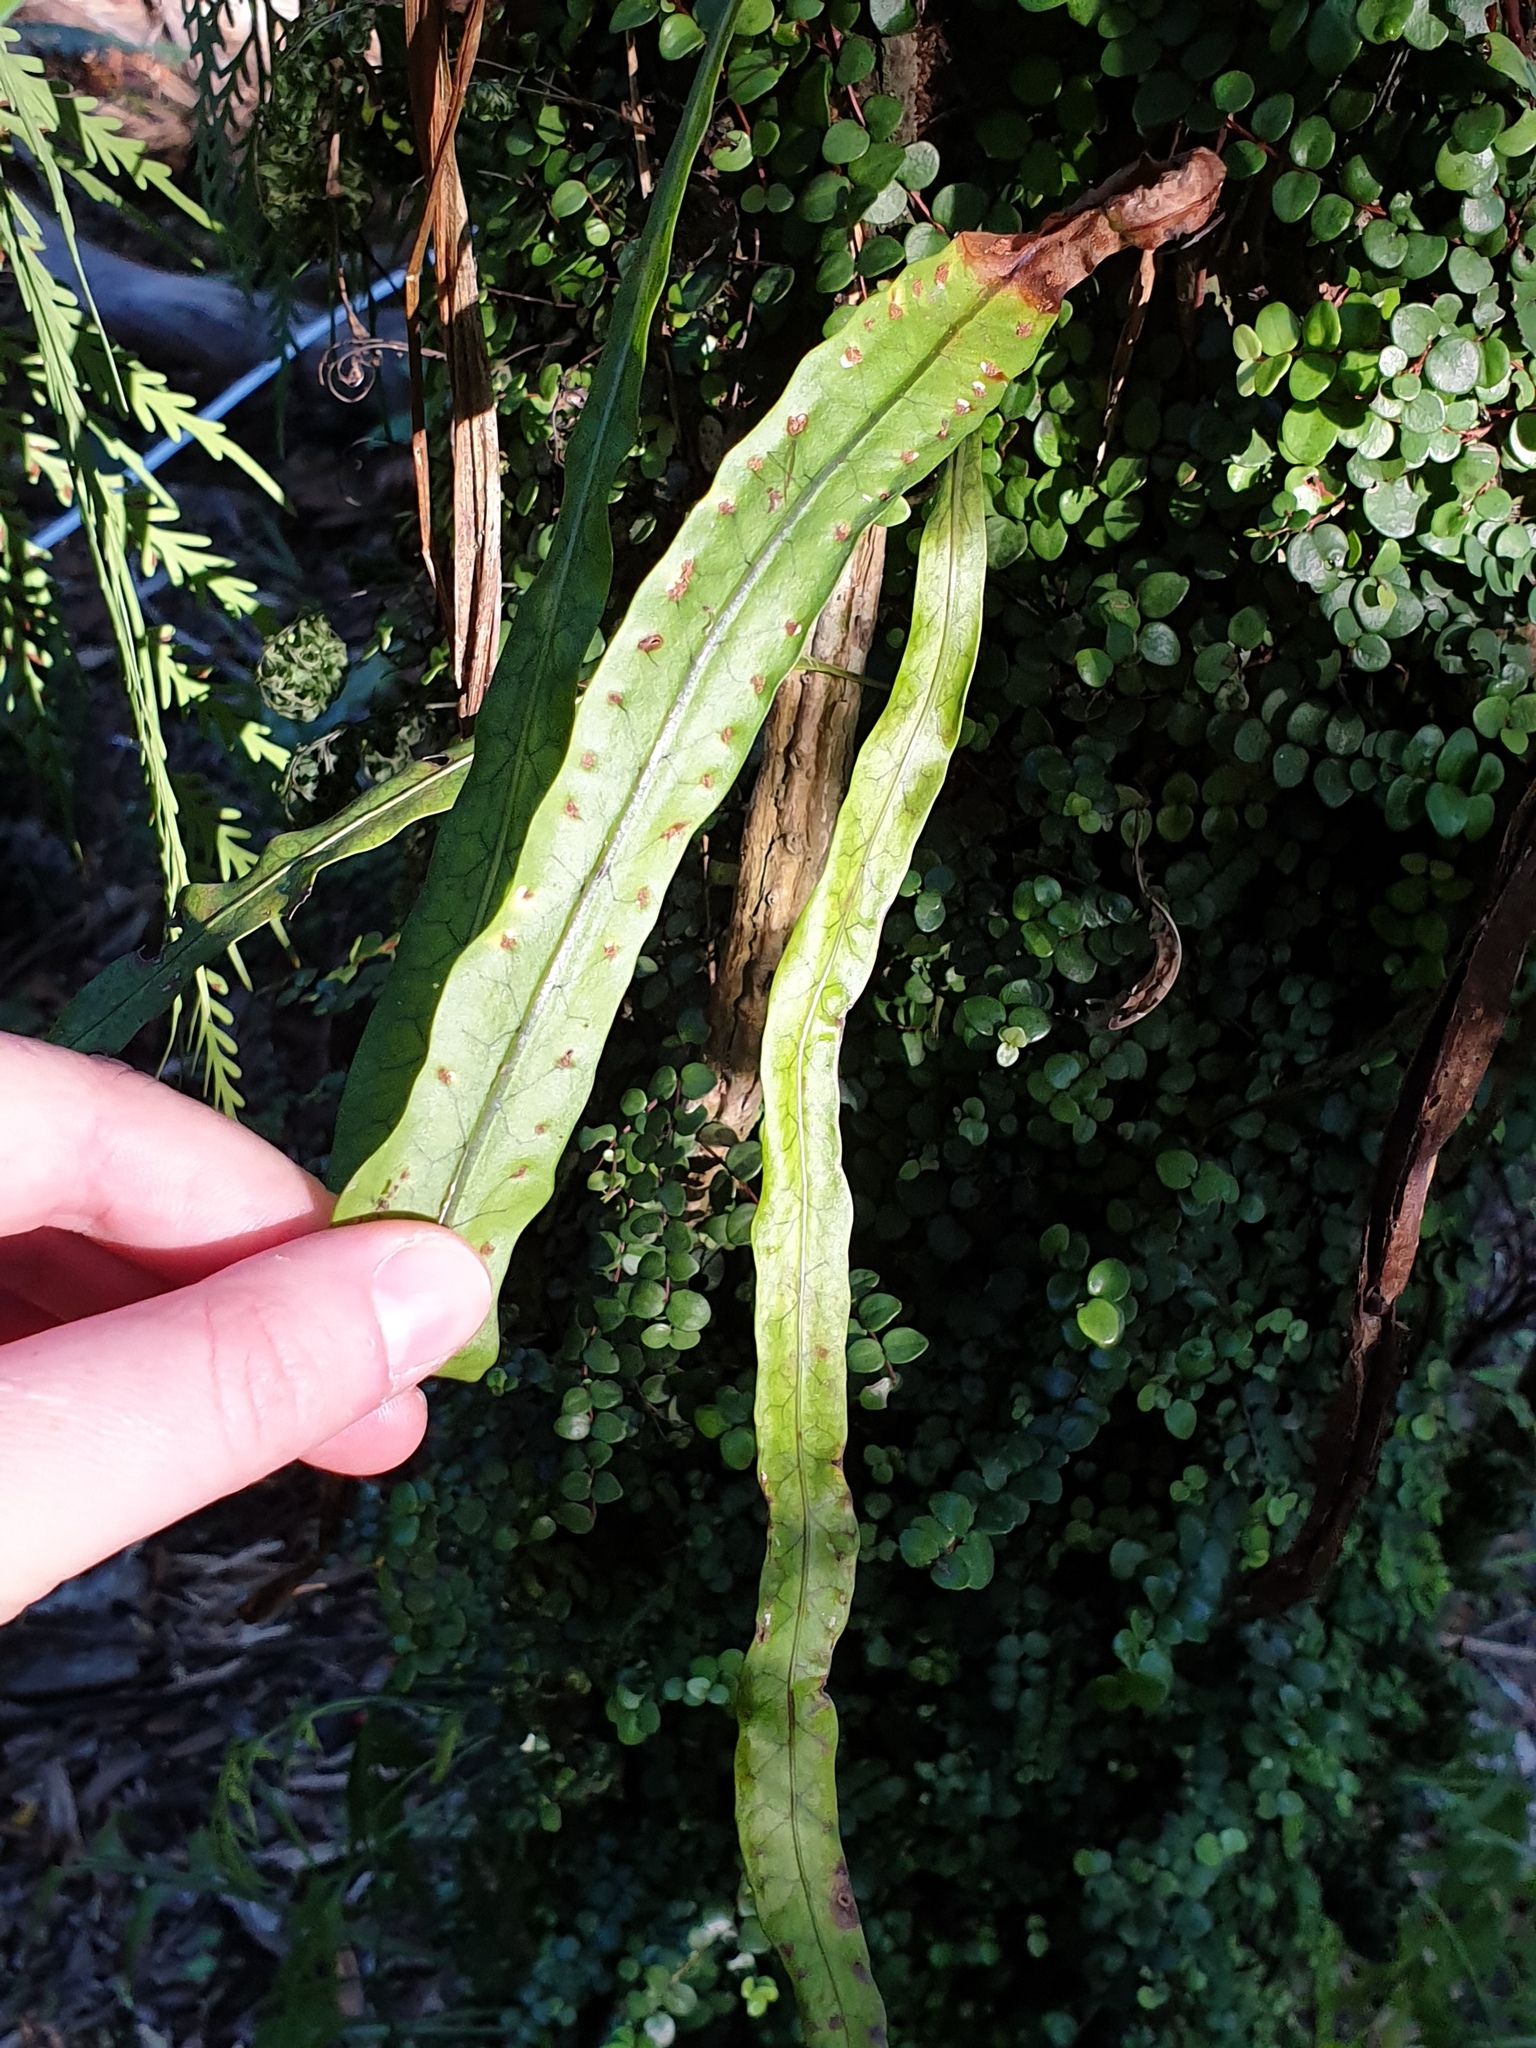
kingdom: Plantae
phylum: Tracheophyta
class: Polypodiopsida
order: Polypodiales
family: Polypodiaceae
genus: Lecanopteris
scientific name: Lecanopteris scandens
